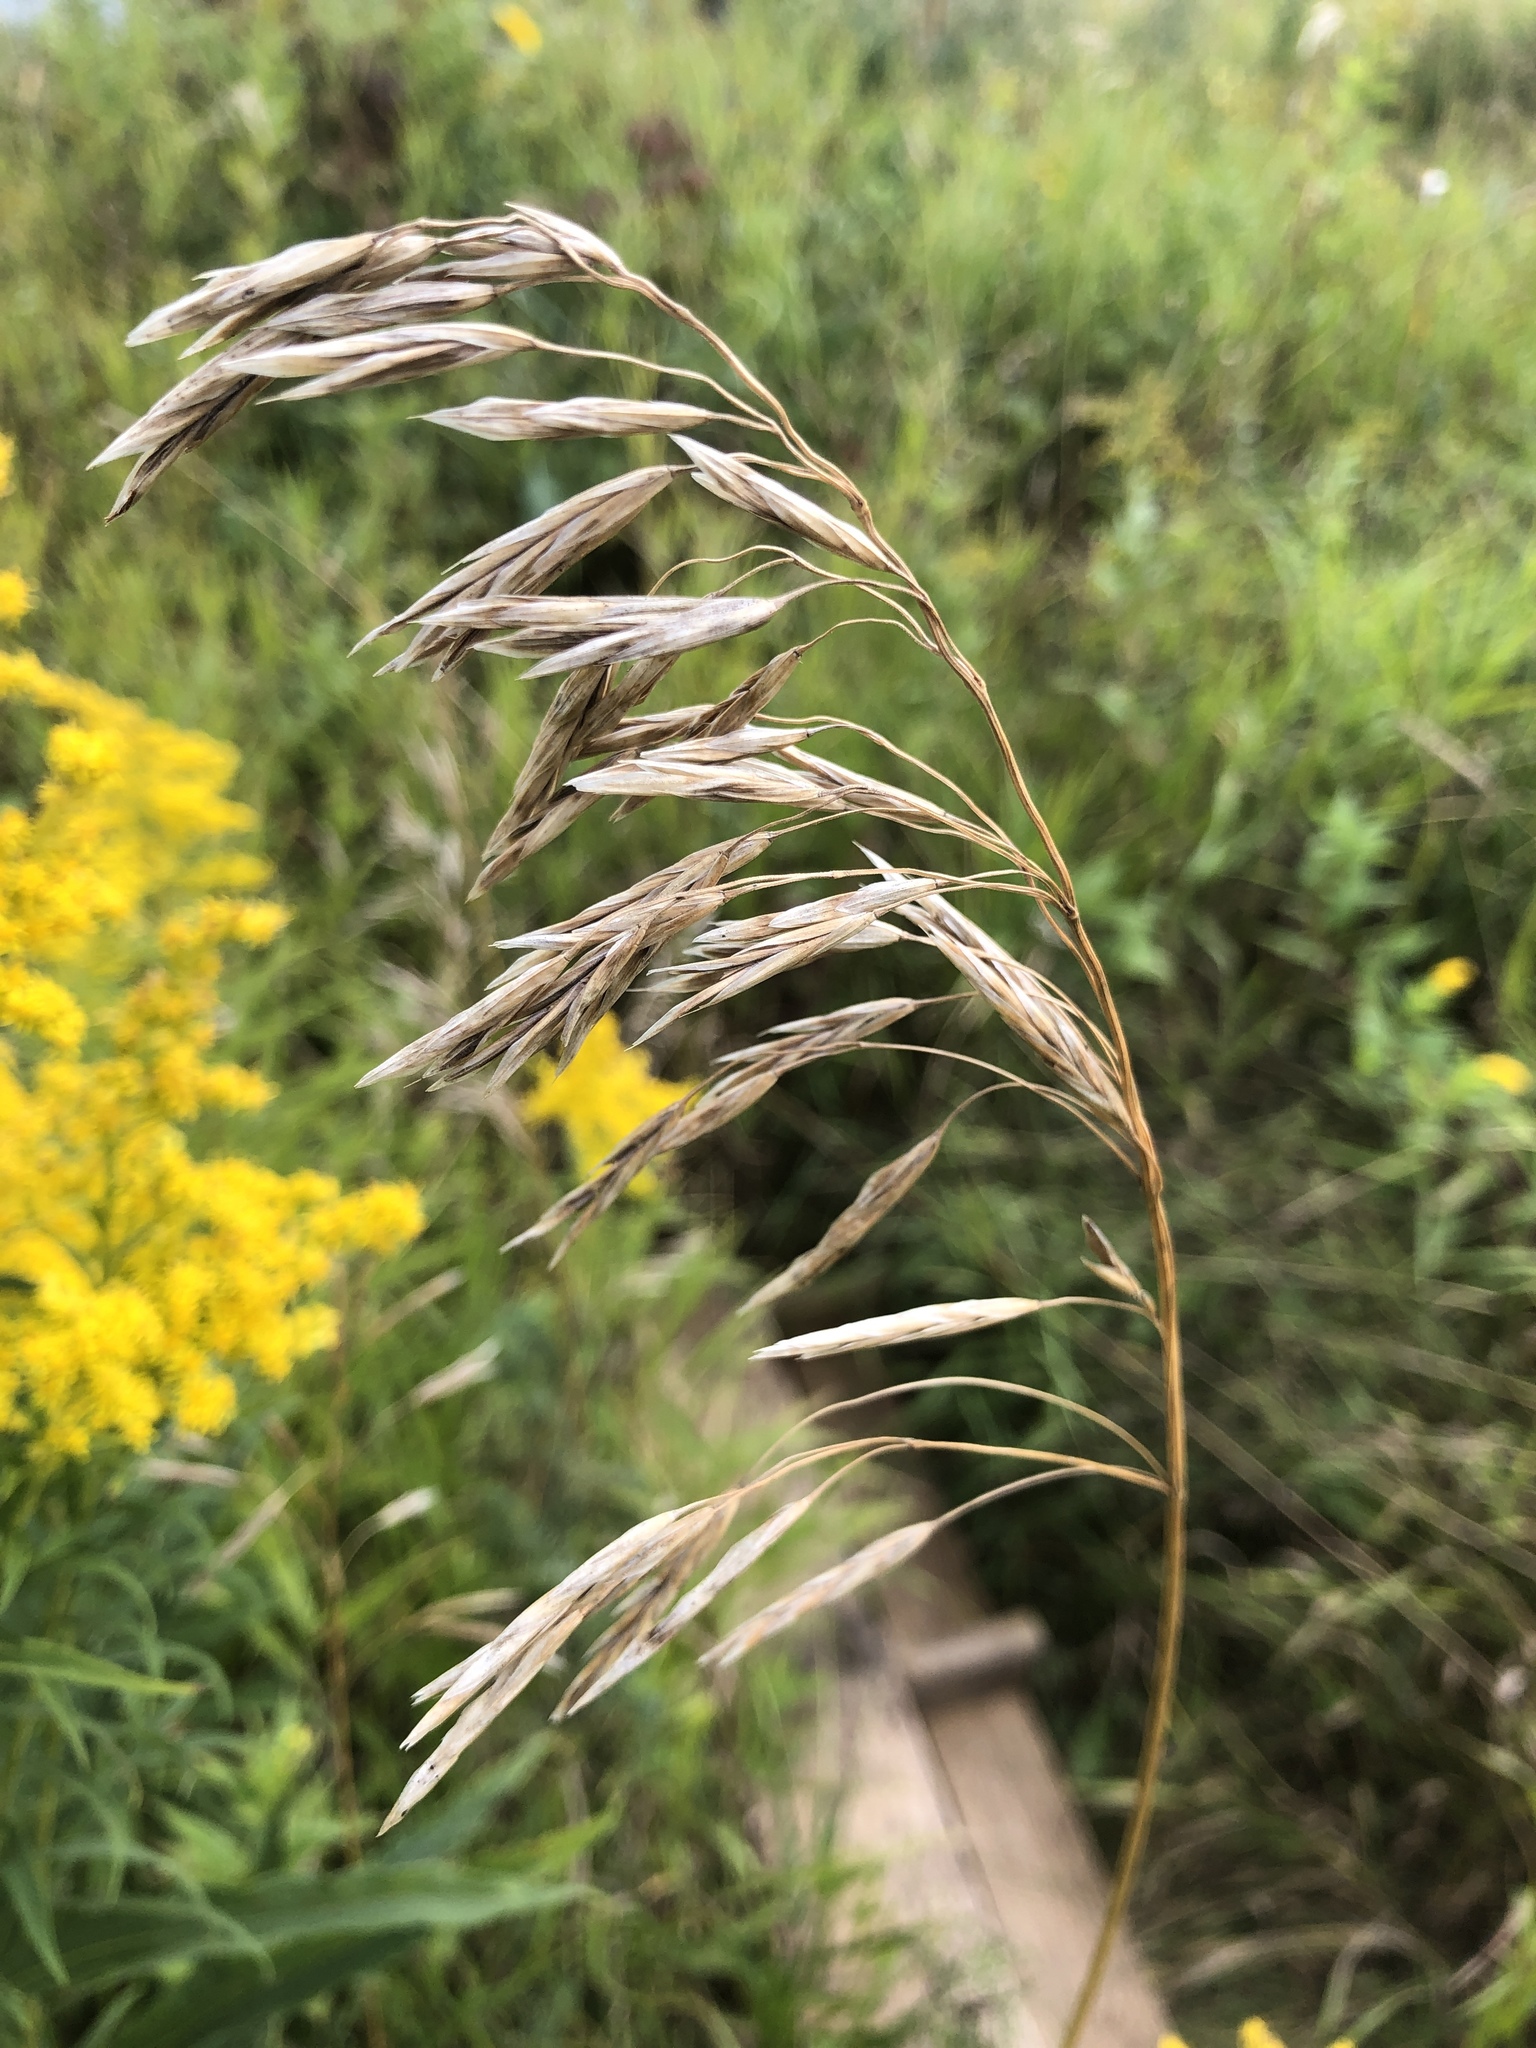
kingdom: Plantae
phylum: Tracheophyta
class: Liliopsida
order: Poales
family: Poaceae
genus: Bromus
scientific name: Bromus inermis
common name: Smooth brome
